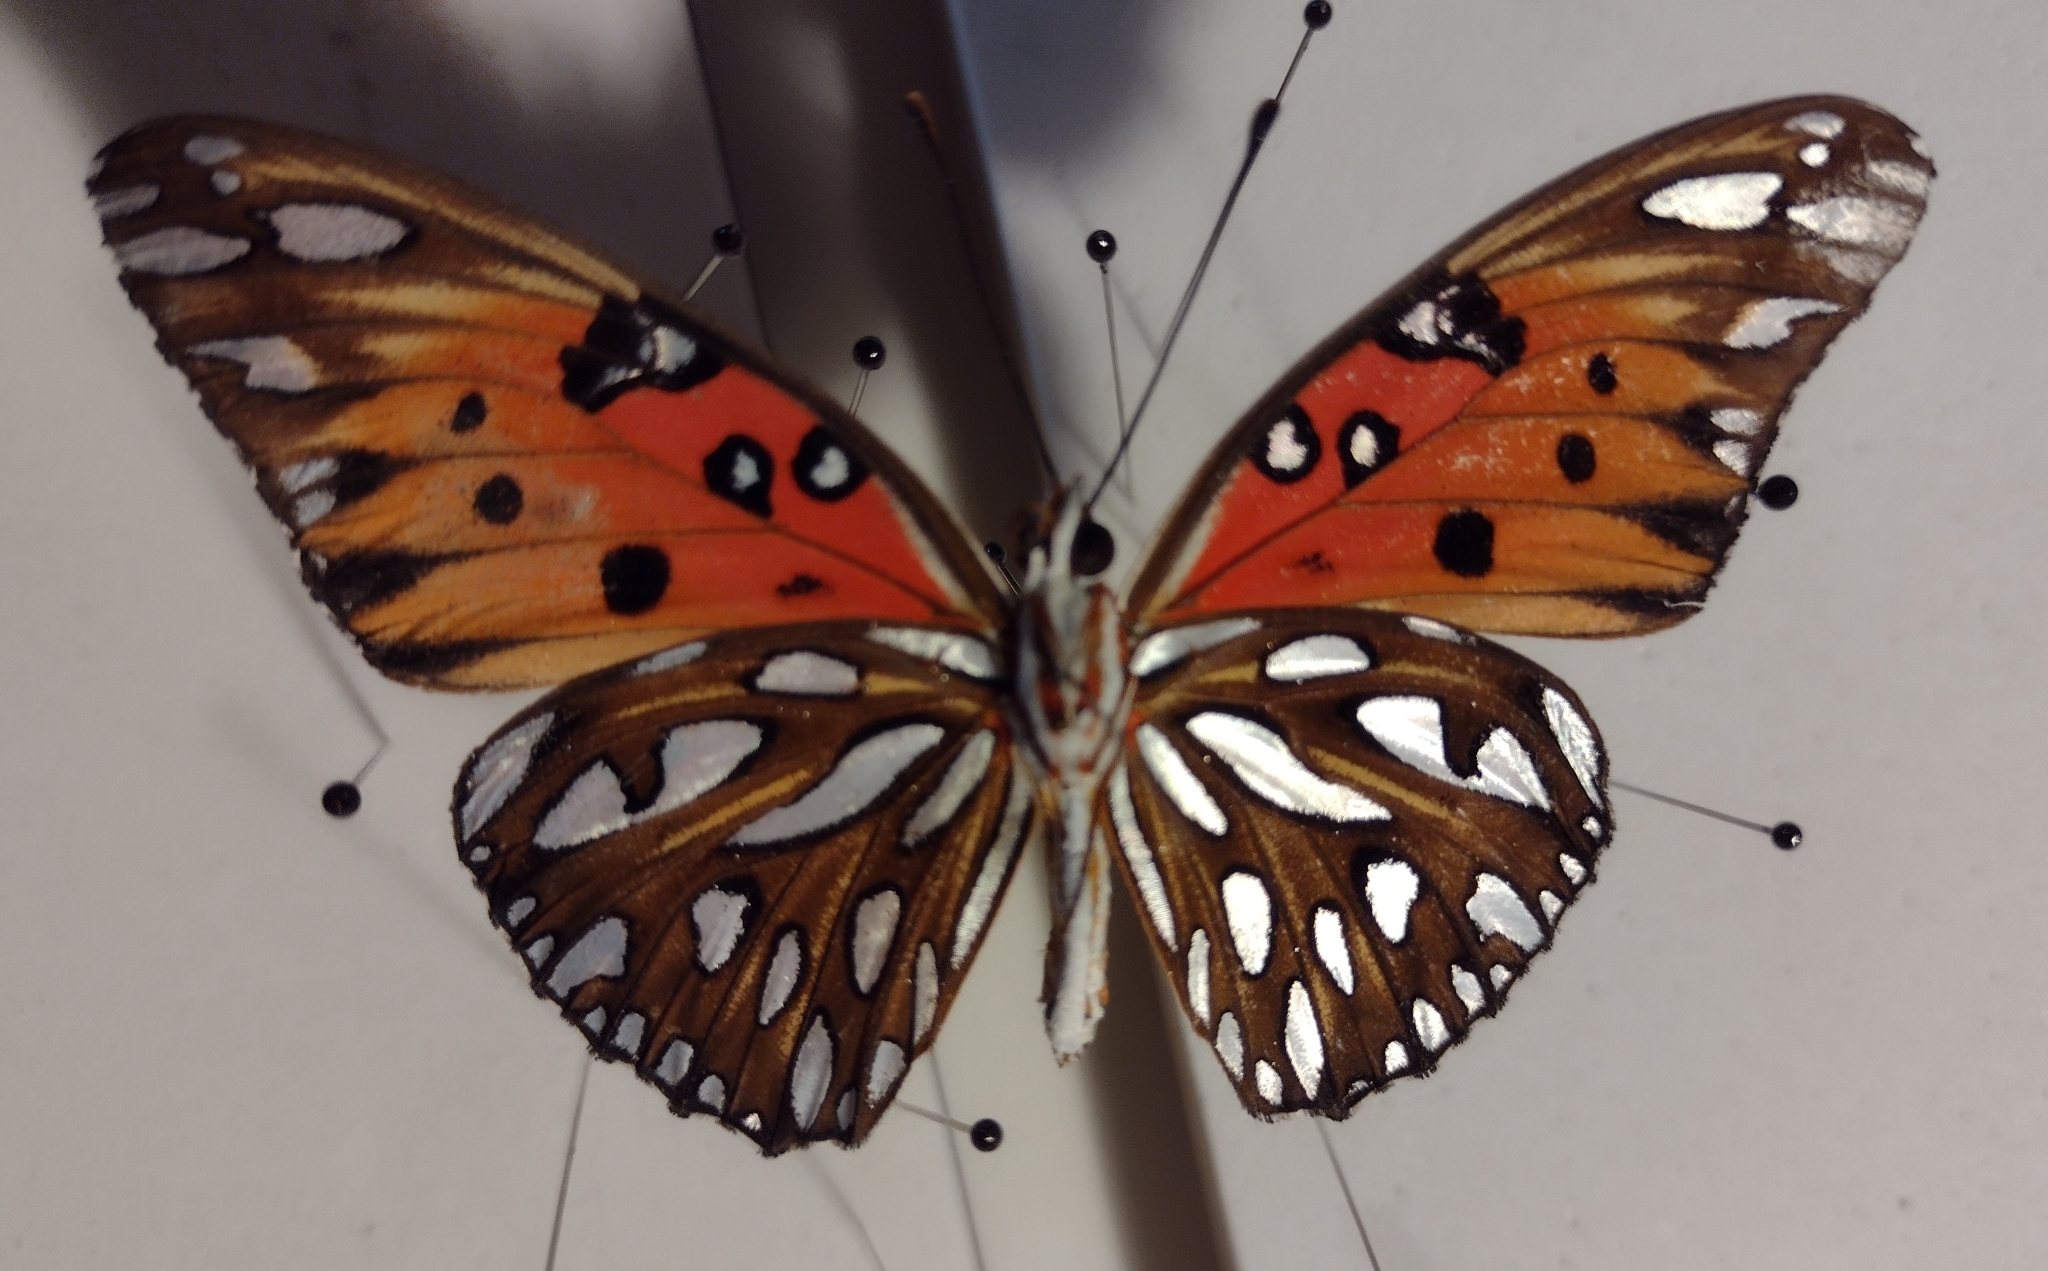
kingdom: Animalia
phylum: Arthropoda
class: Insecta
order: Lepidoptera
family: Nymphalidae
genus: Dione
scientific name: Dione vanillae
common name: Gulf fritillary
